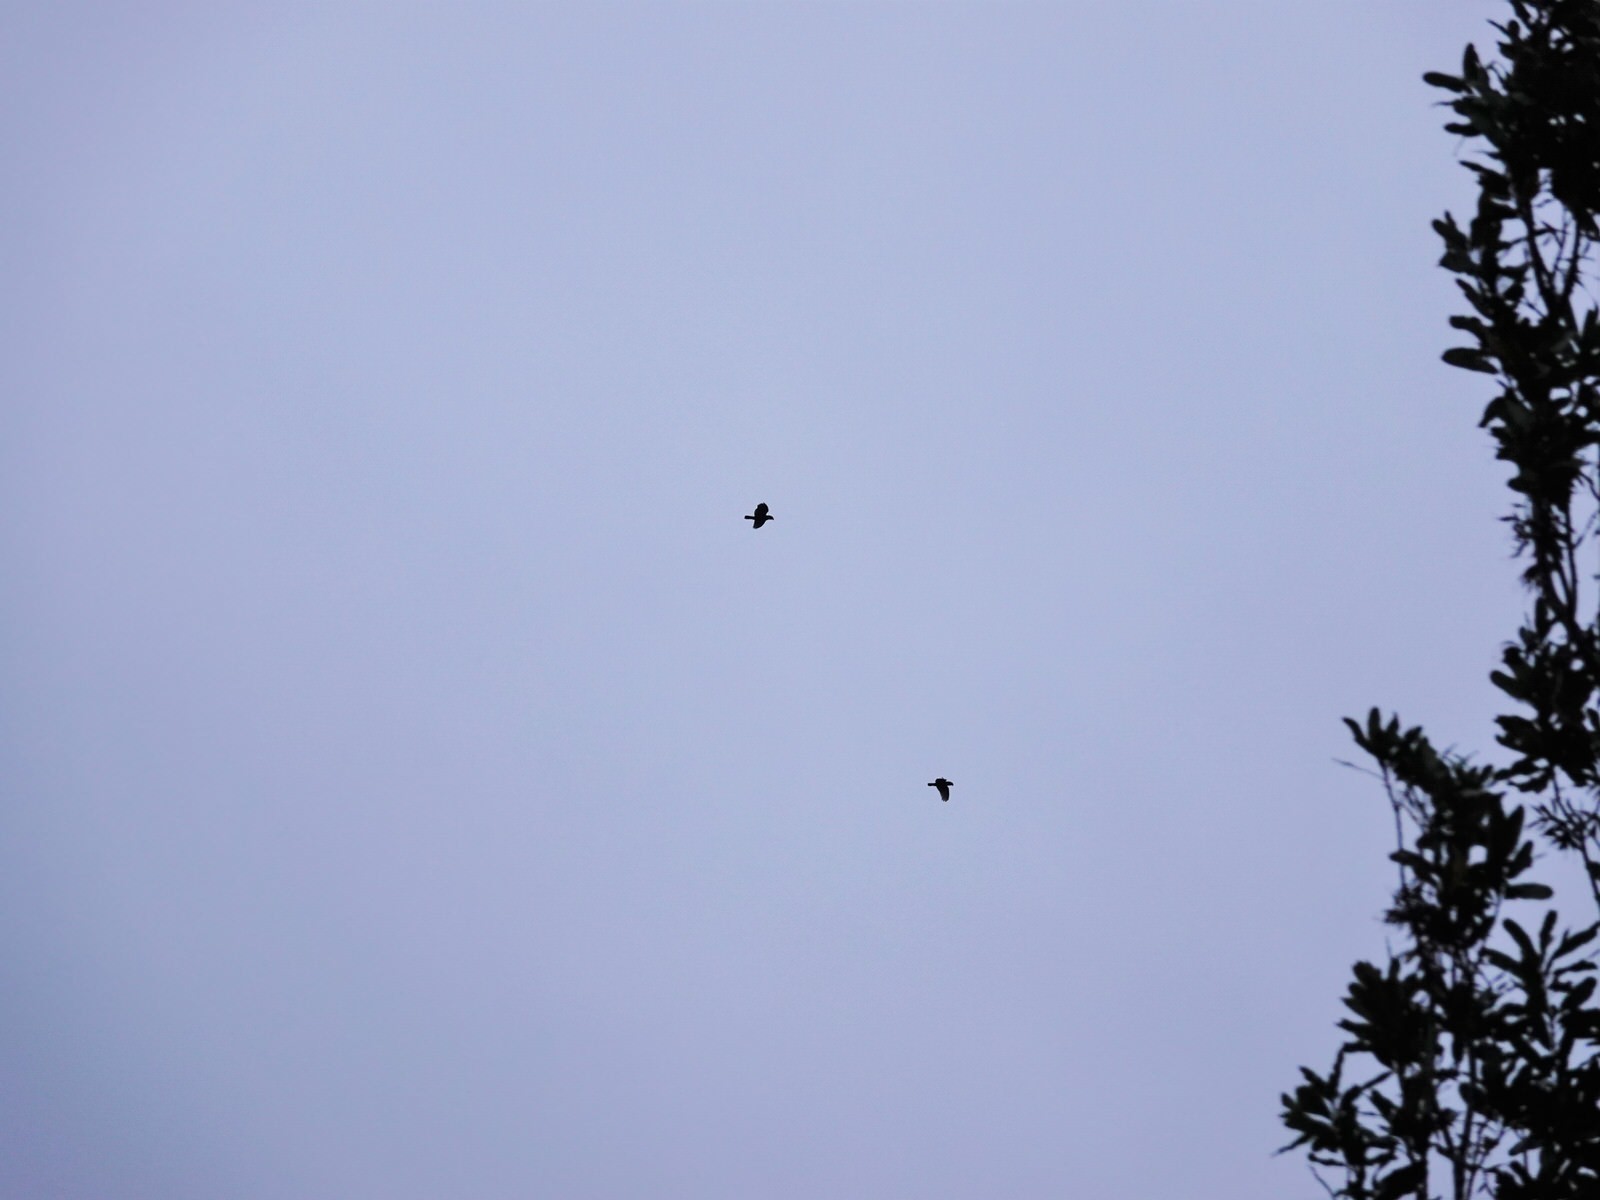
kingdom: Animalia
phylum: Chordata
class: Aves
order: Psittaciformes
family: Psittacidae
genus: Nestor
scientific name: Nestor meridionalis
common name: New zealand kaka
